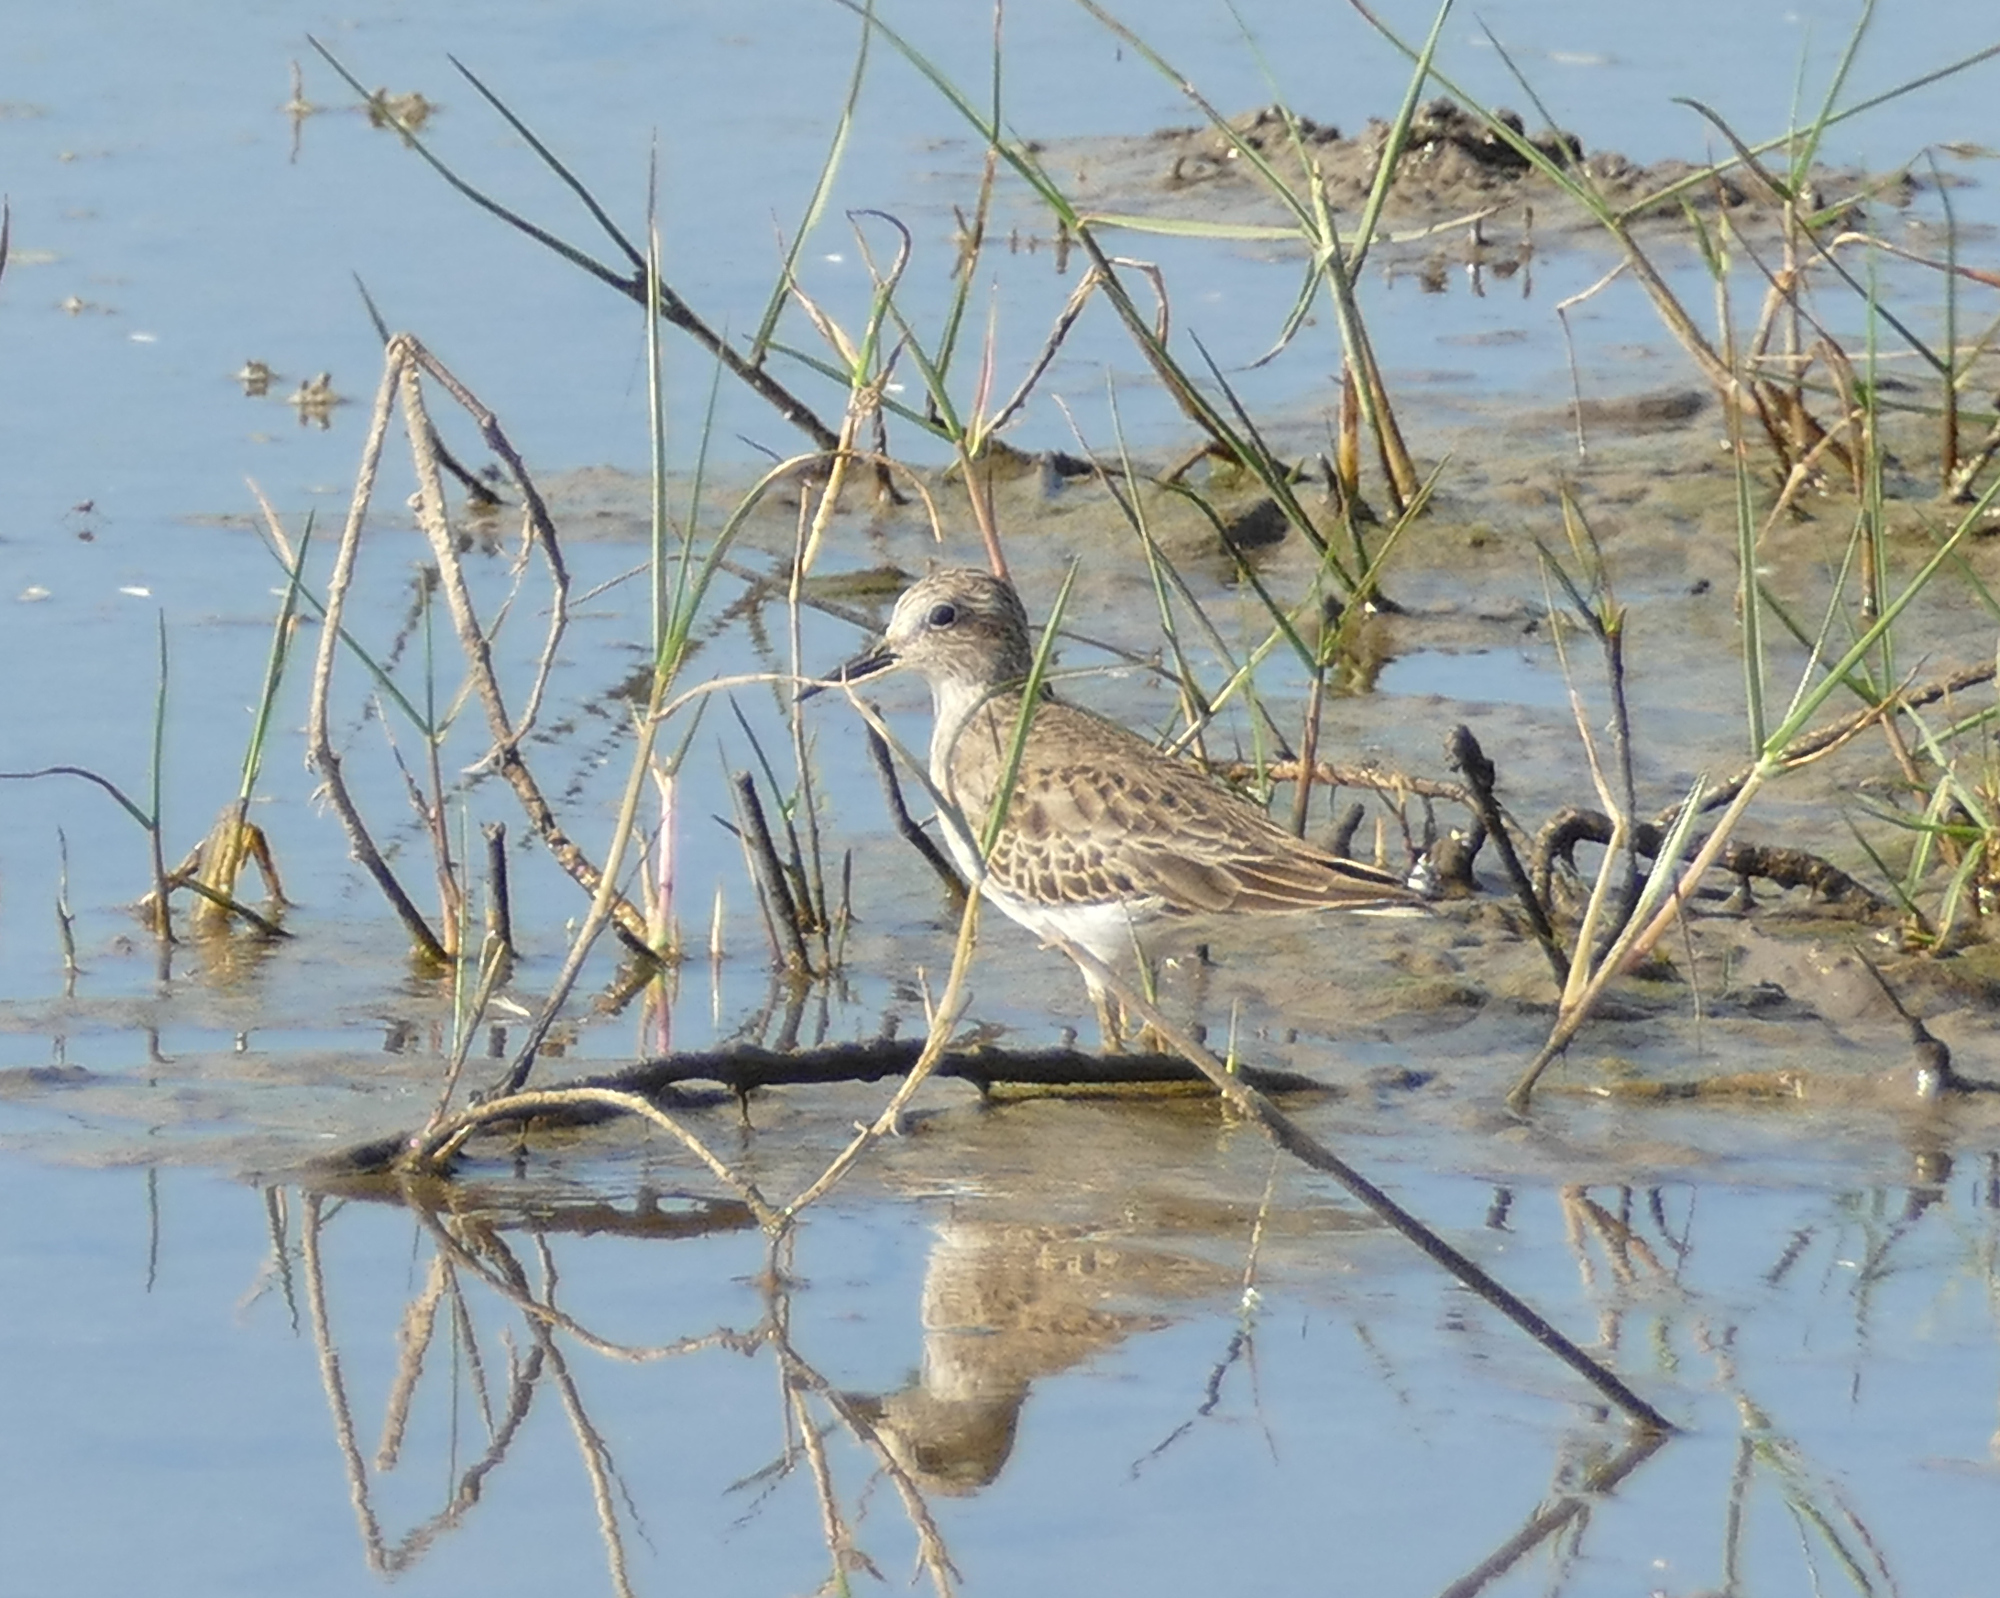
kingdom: Animalia
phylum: Chordata
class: Aves
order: Charadriiformes
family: Scolopacidae
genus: Calidris
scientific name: Calidris minutilla
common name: Least sandpiper
